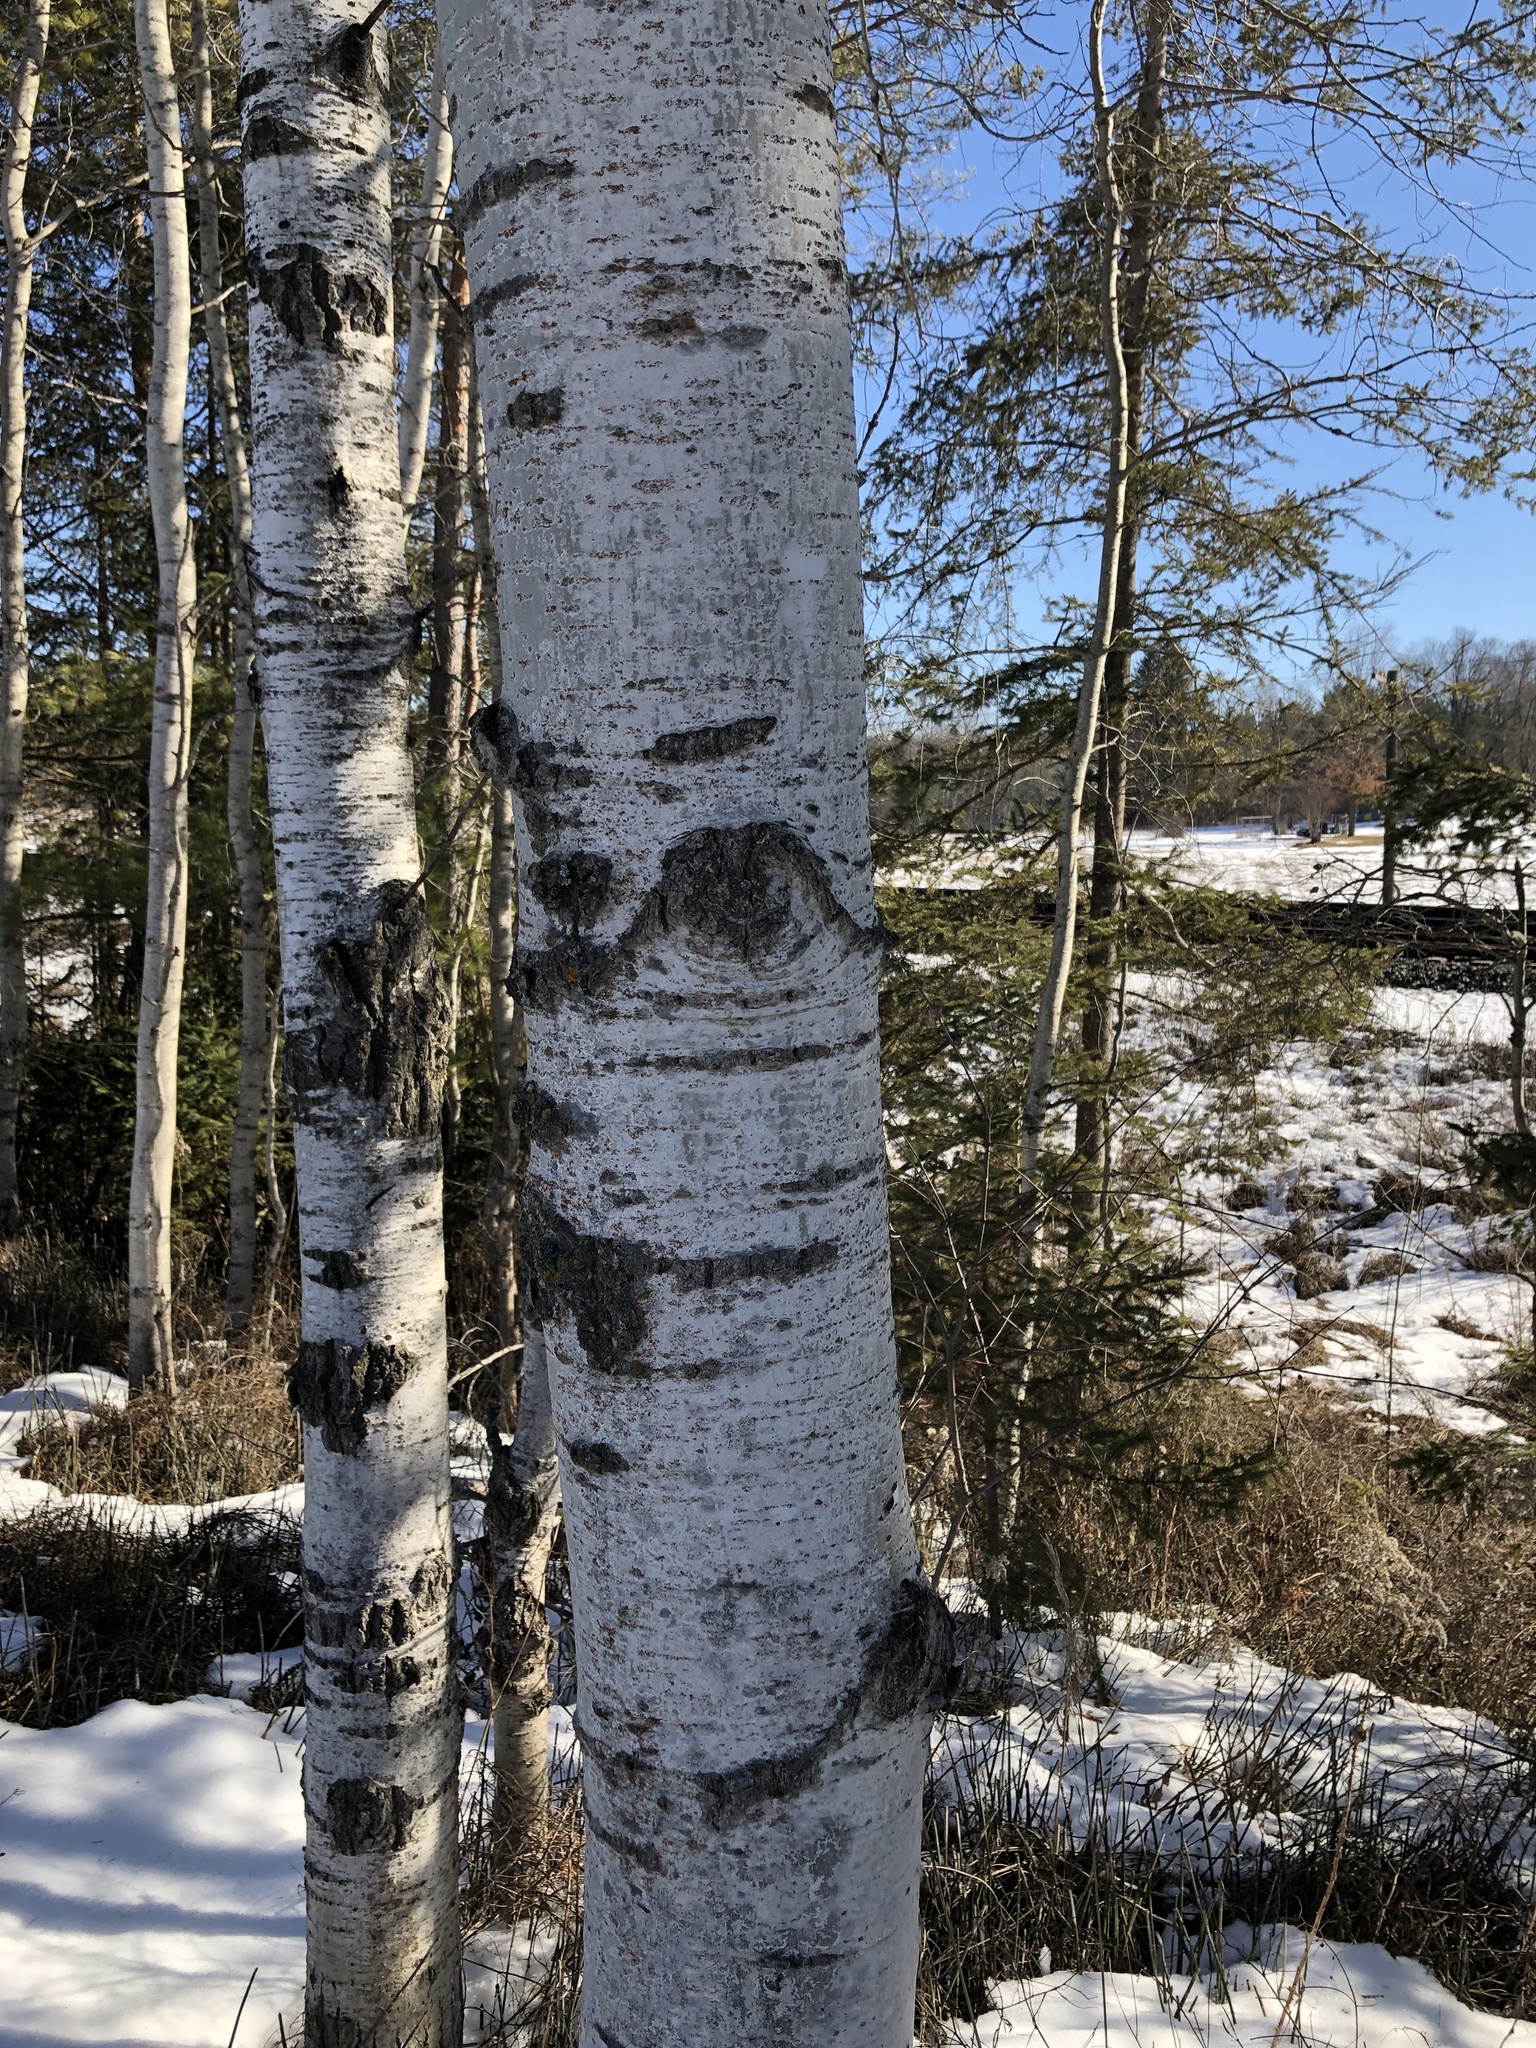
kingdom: Plantae
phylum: Tracheophyta
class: Magnoliopsida
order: Fagales
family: Betulaceae
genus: Betula
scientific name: Betula papyrifera
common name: Paper birch
